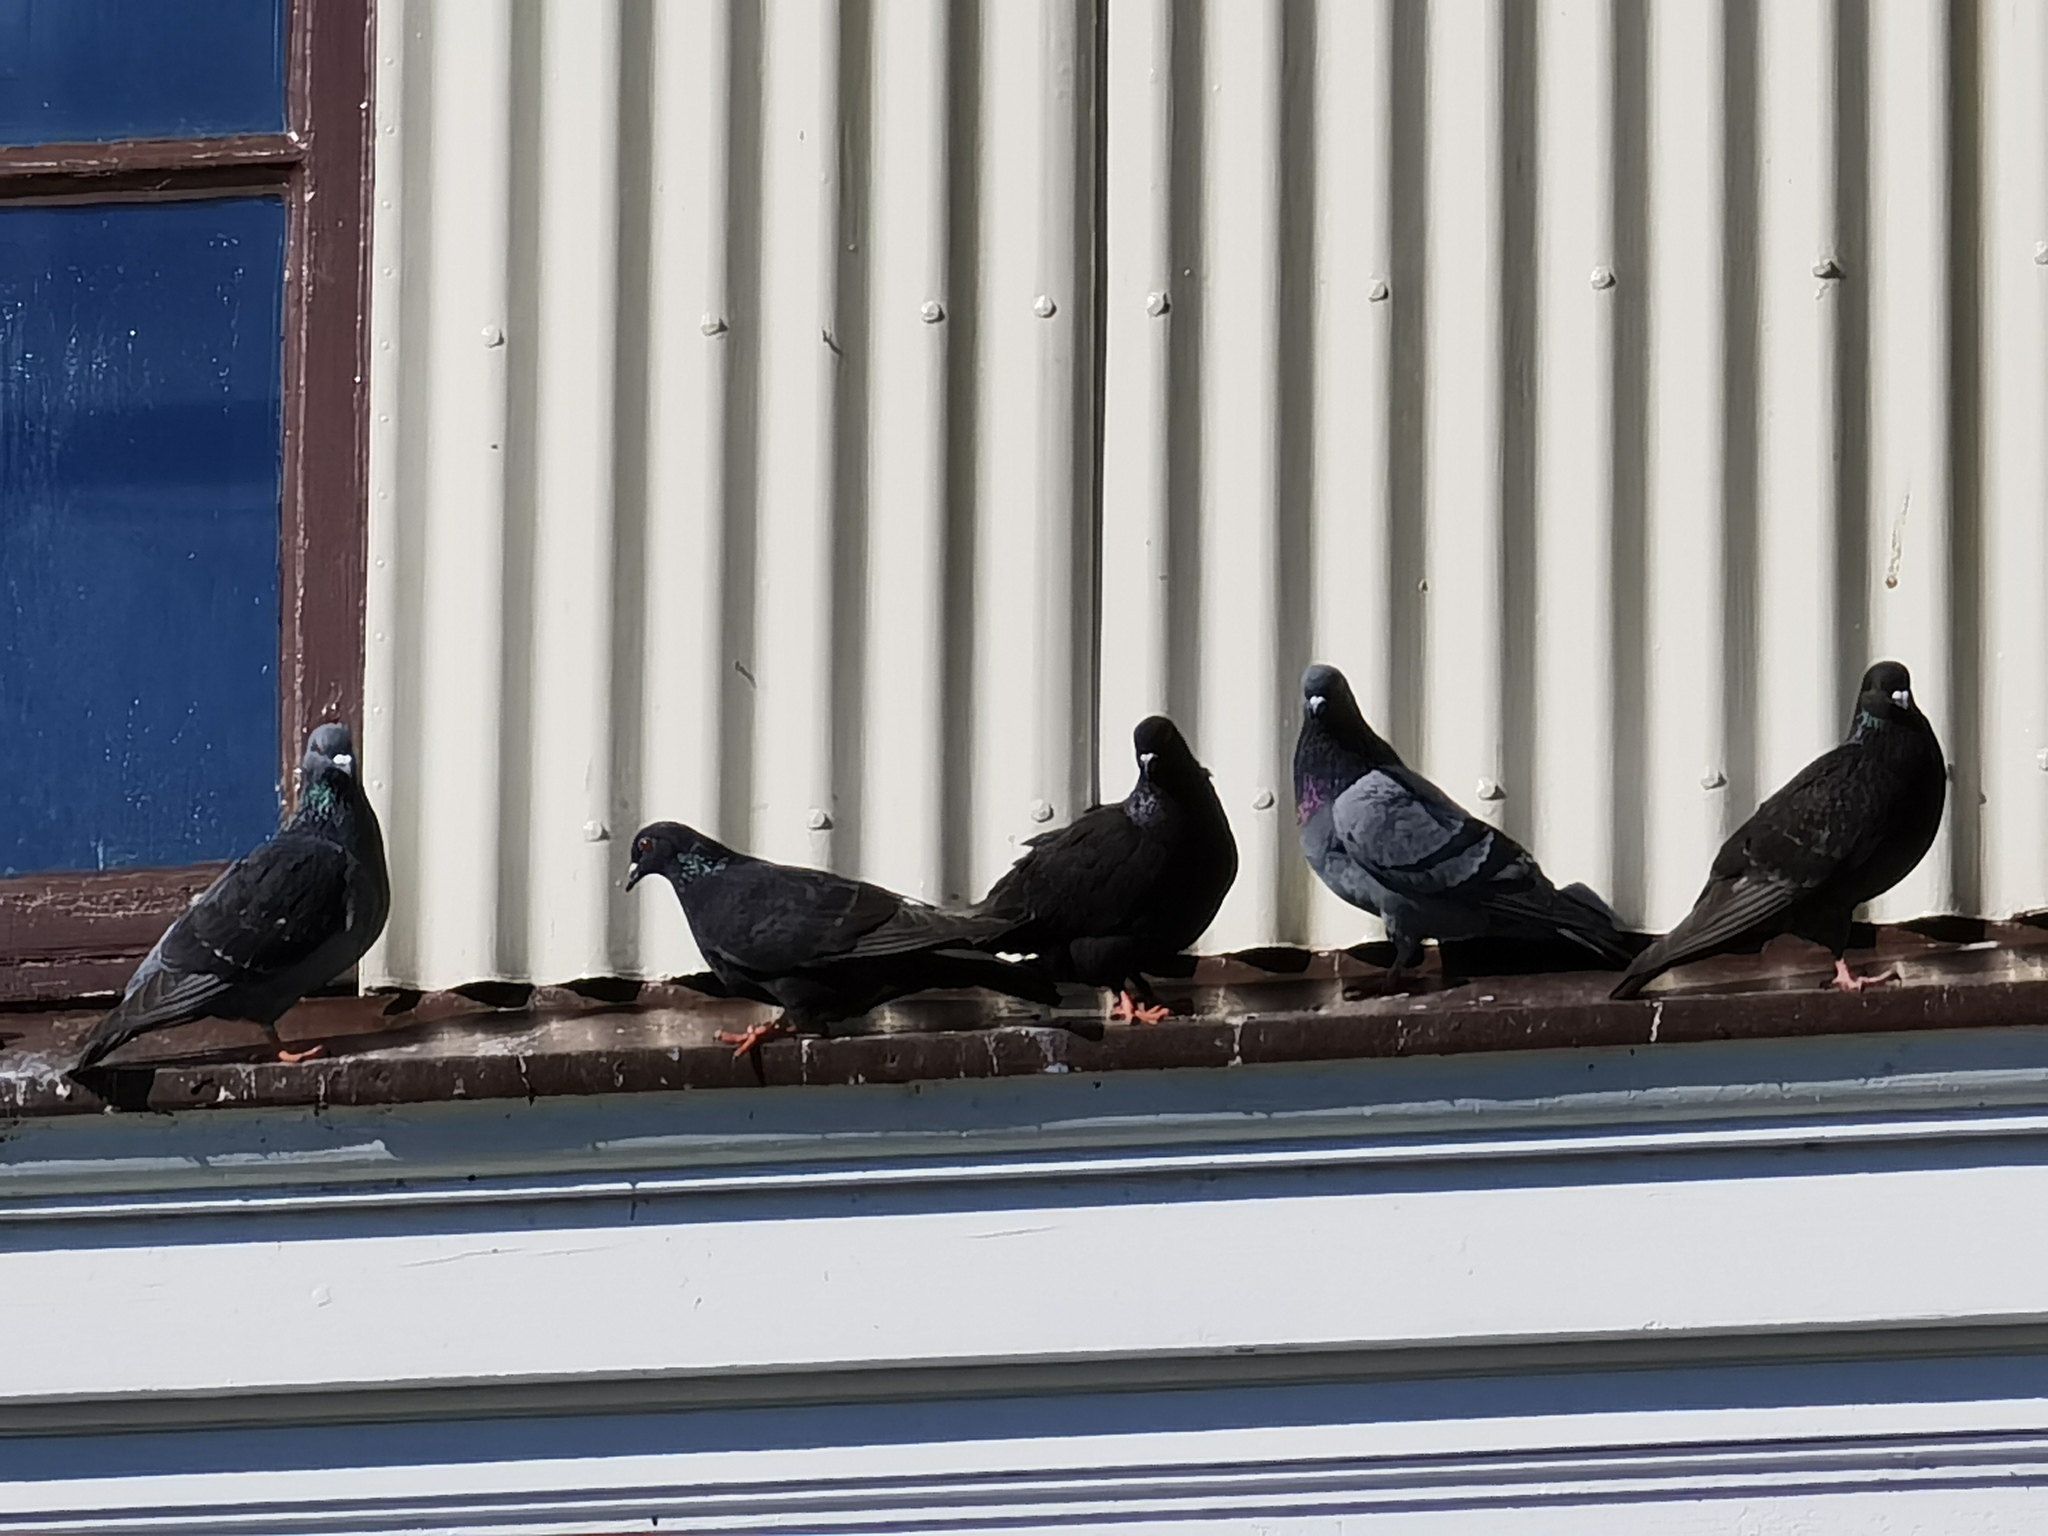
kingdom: Animalia
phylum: Chordata
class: Aves
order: Columbiformes
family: Columbidae
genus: Columba
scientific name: Columba livia
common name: Rock pigeon
